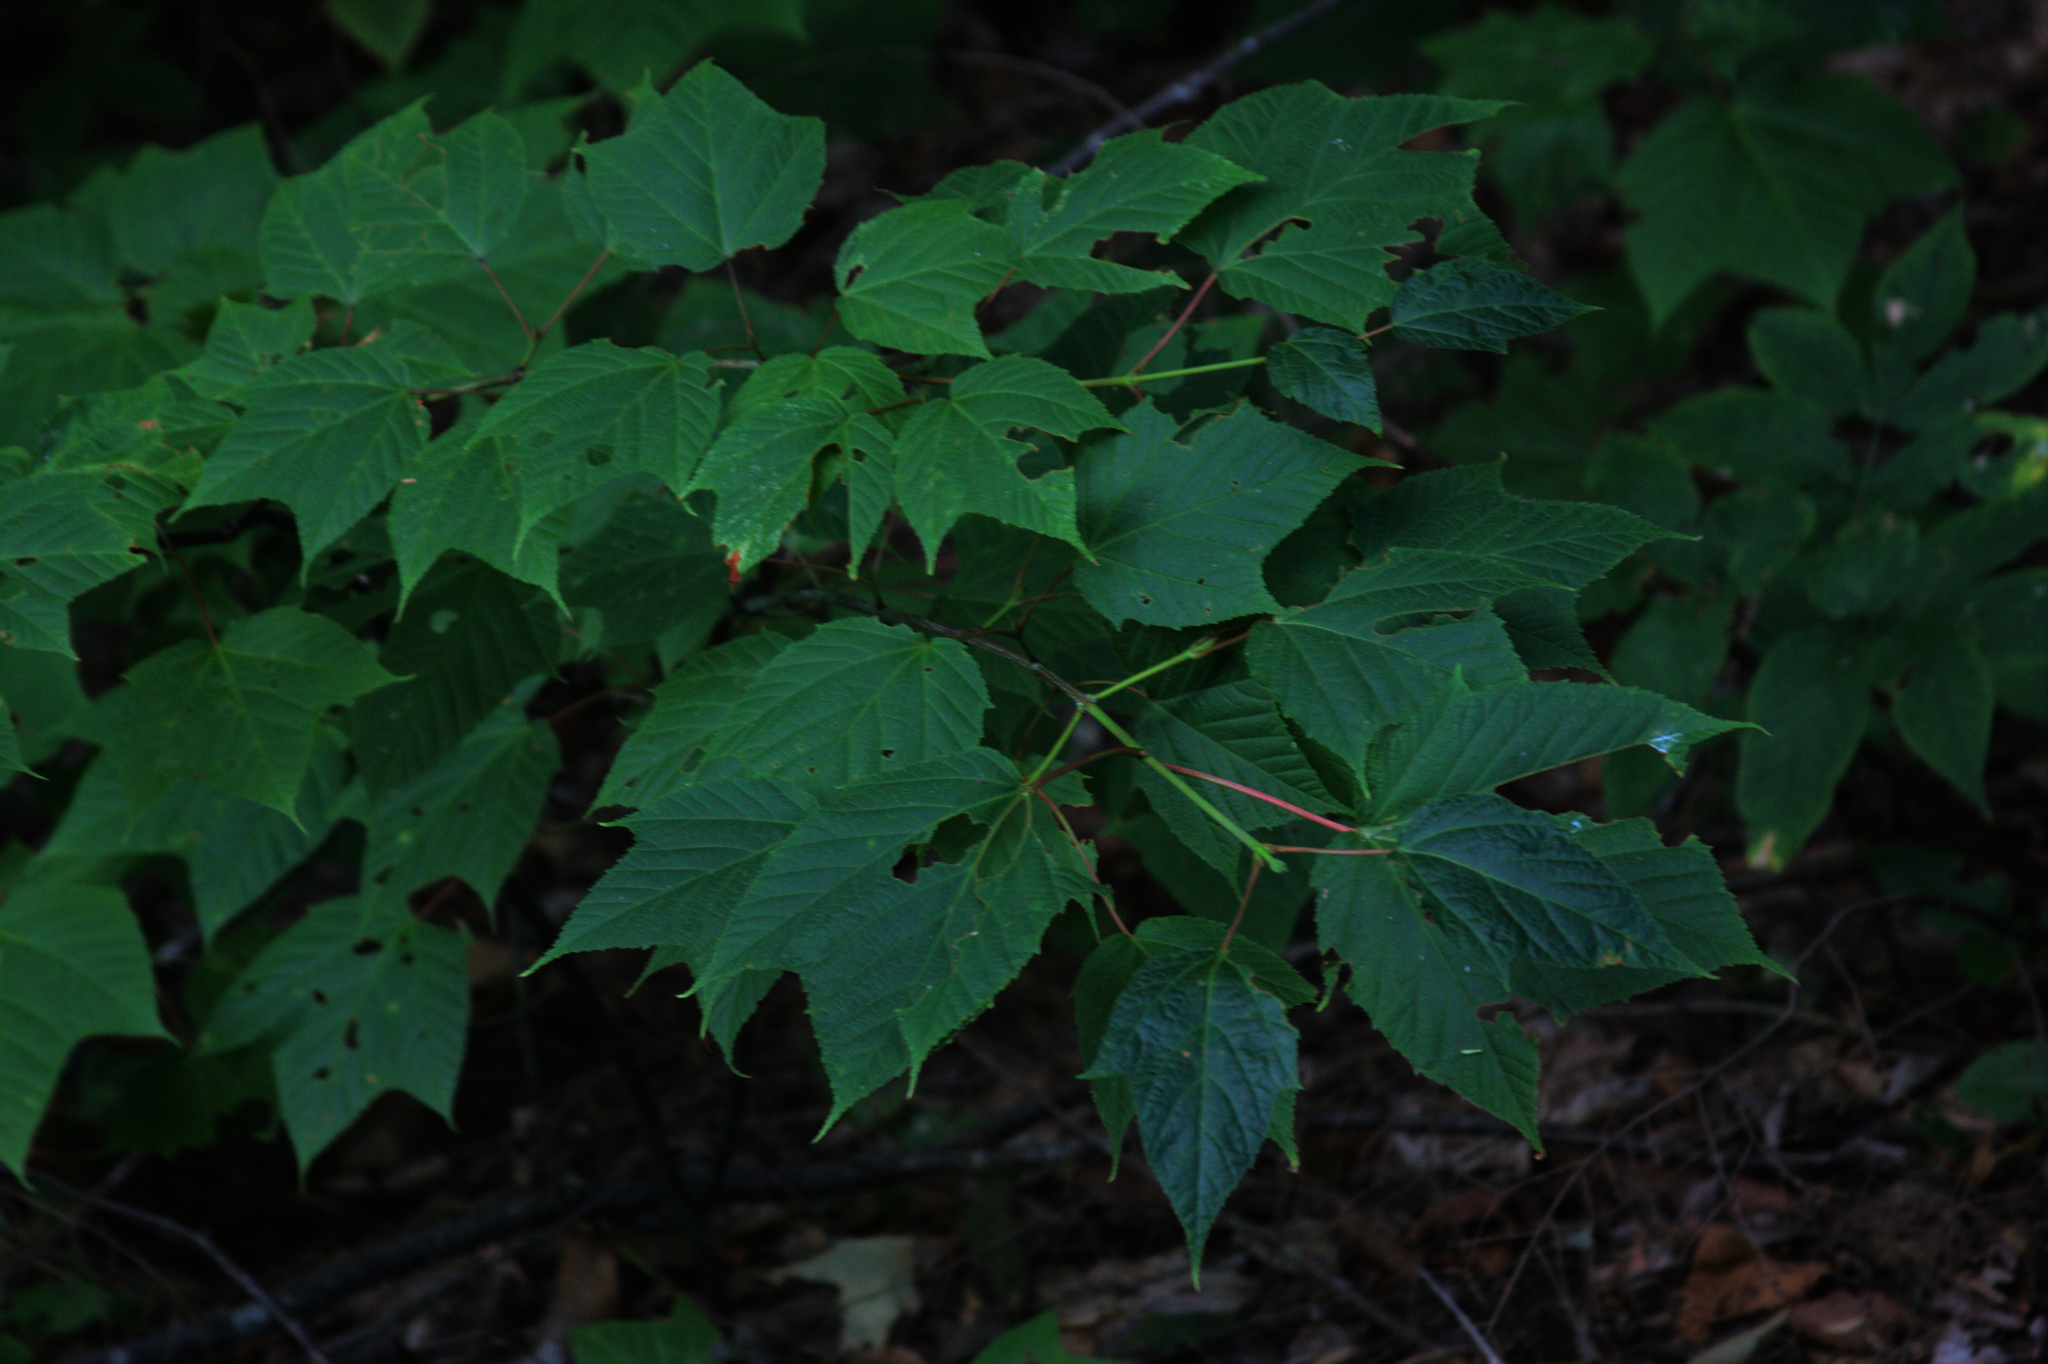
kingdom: Plantae
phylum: Tracheophyta
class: Magnoliopsida
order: Sapindales
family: Sapindaceae
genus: Acer
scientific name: Acer pensylvanicum
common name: Moosewood
